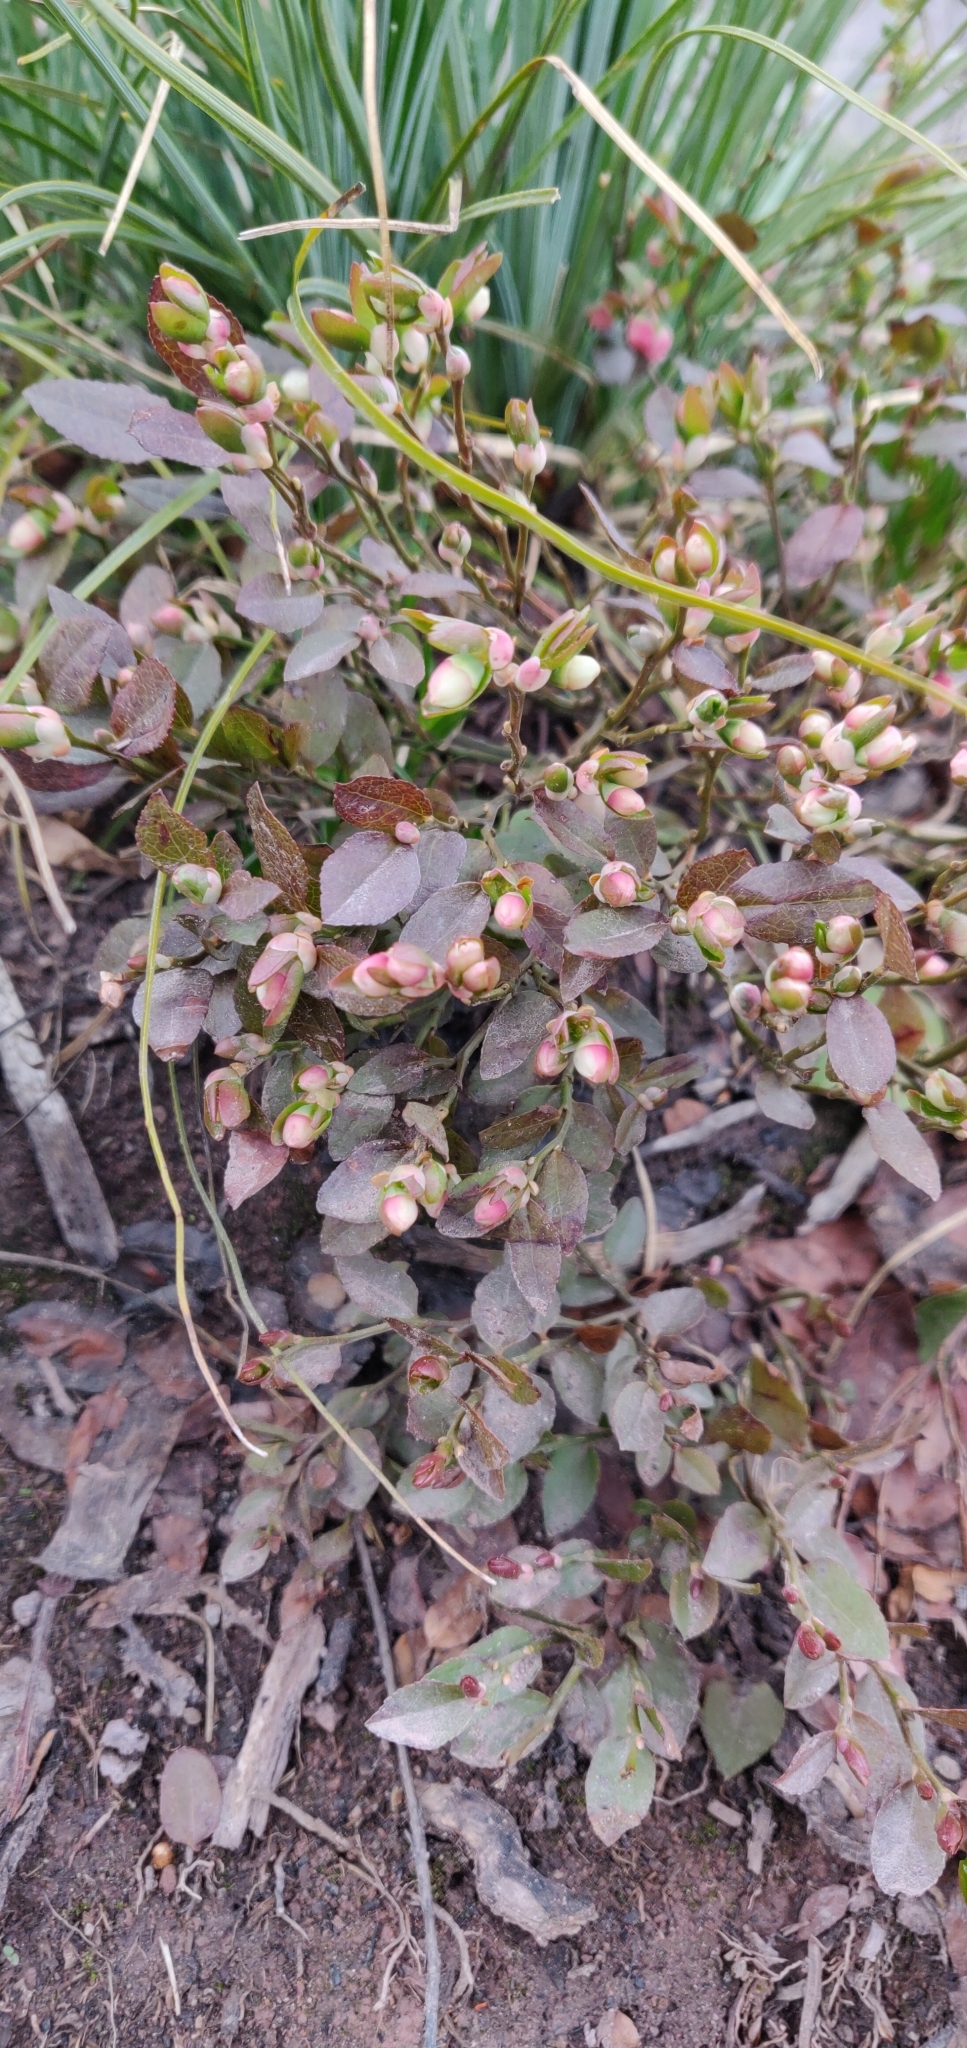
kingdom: Plantae
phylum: Tracheophyta
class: Magnoliopsida
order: Ericales
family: Ericaceae
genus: Vaccinium
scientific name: Vaccinium scoparium
